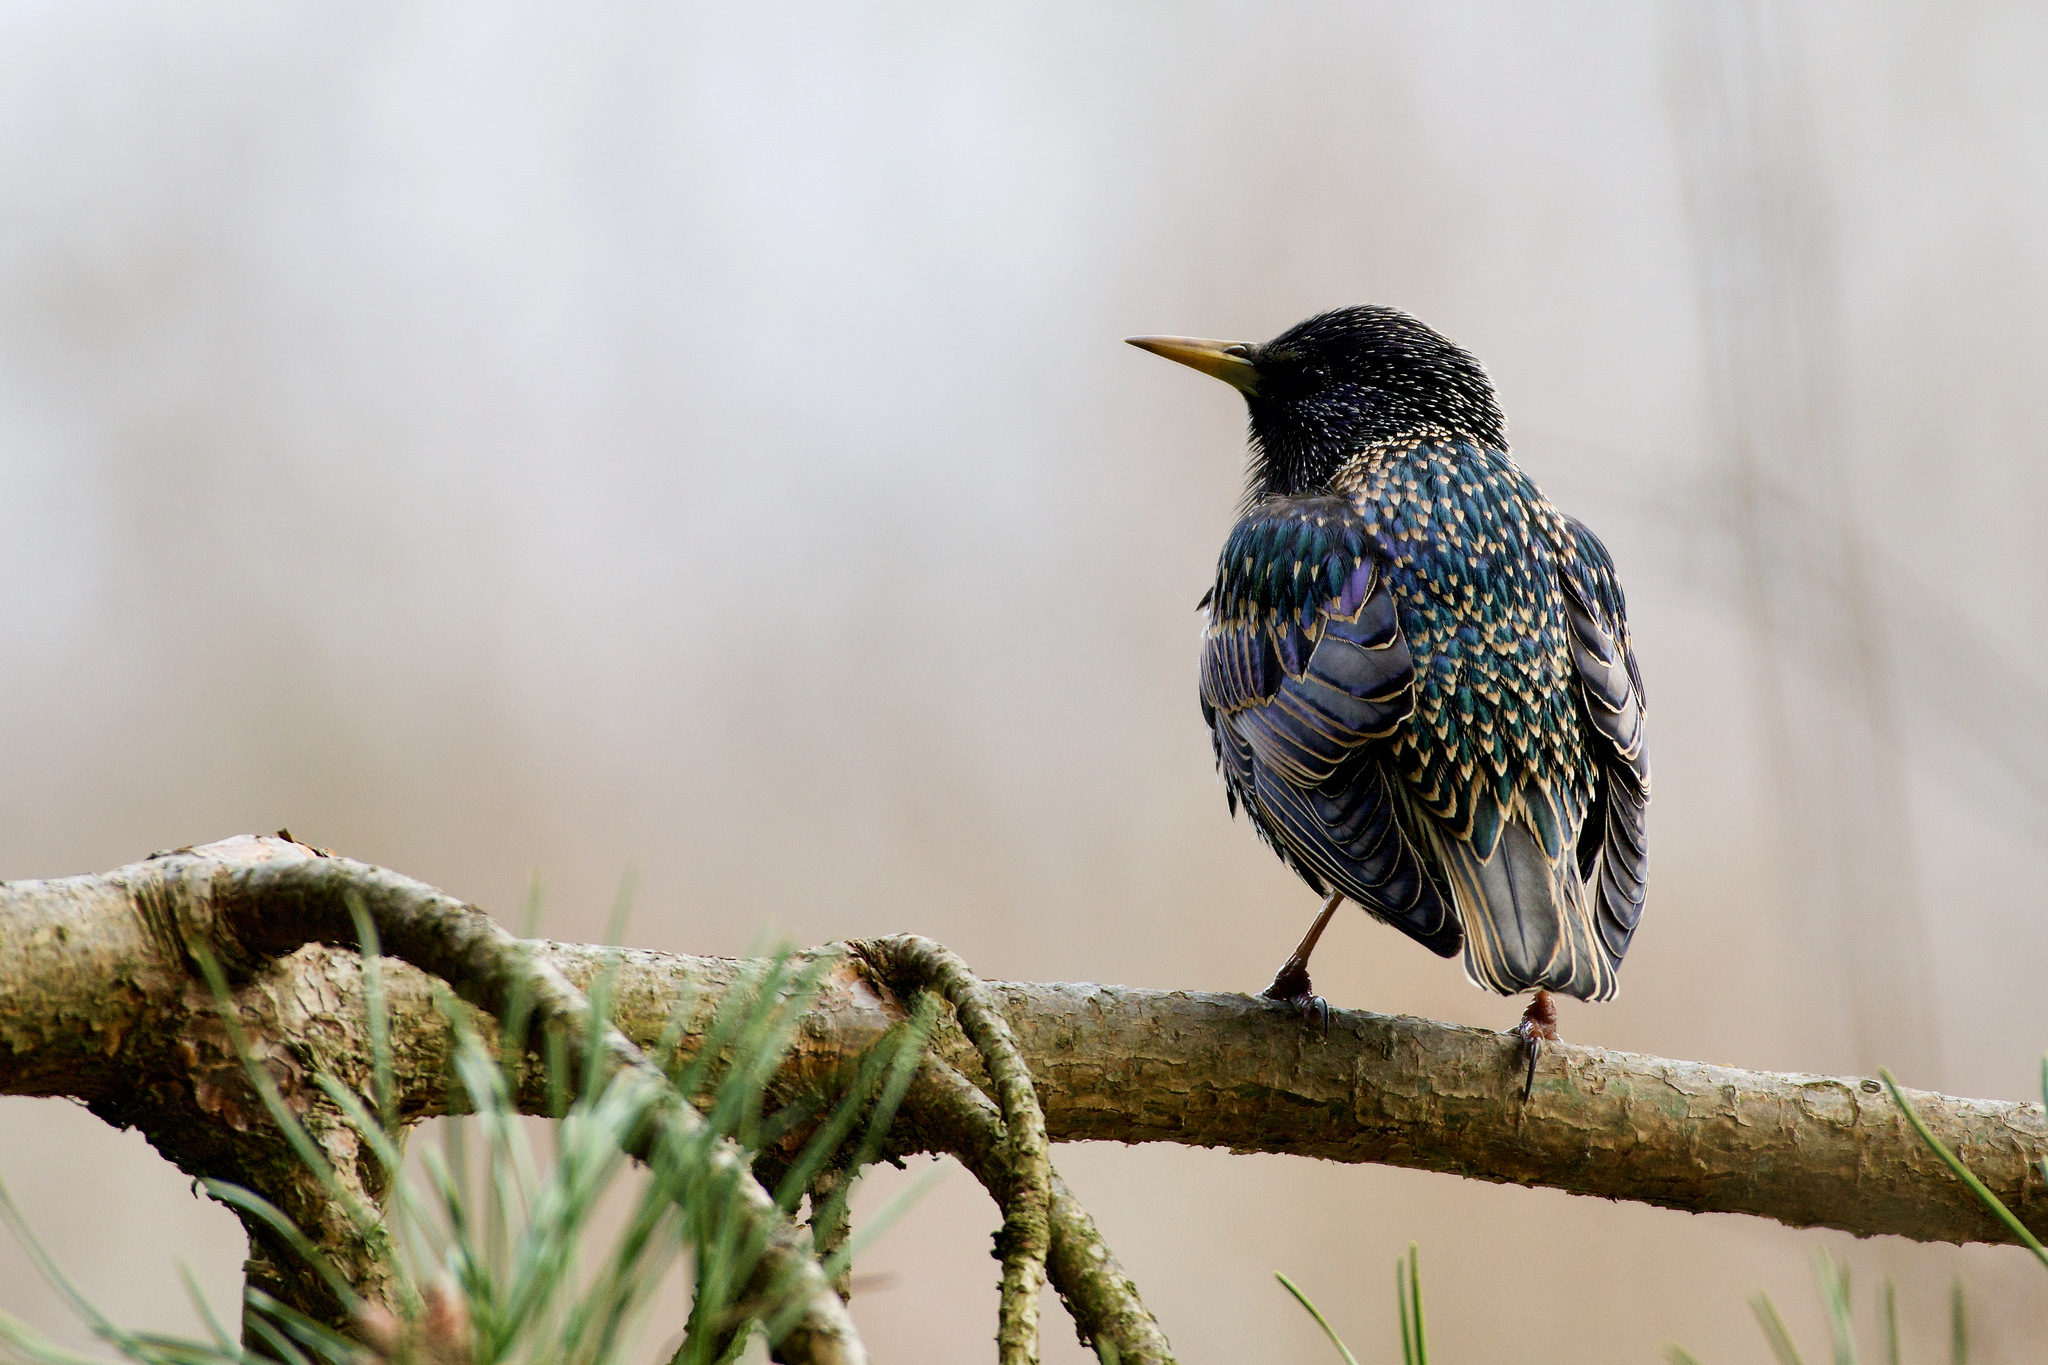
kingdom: Animalia
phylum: Chordata
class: Aves
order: Passeriformes
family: Sturnidae
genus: Sturnus
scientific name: Sturnus vulgaris
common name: Common starling
